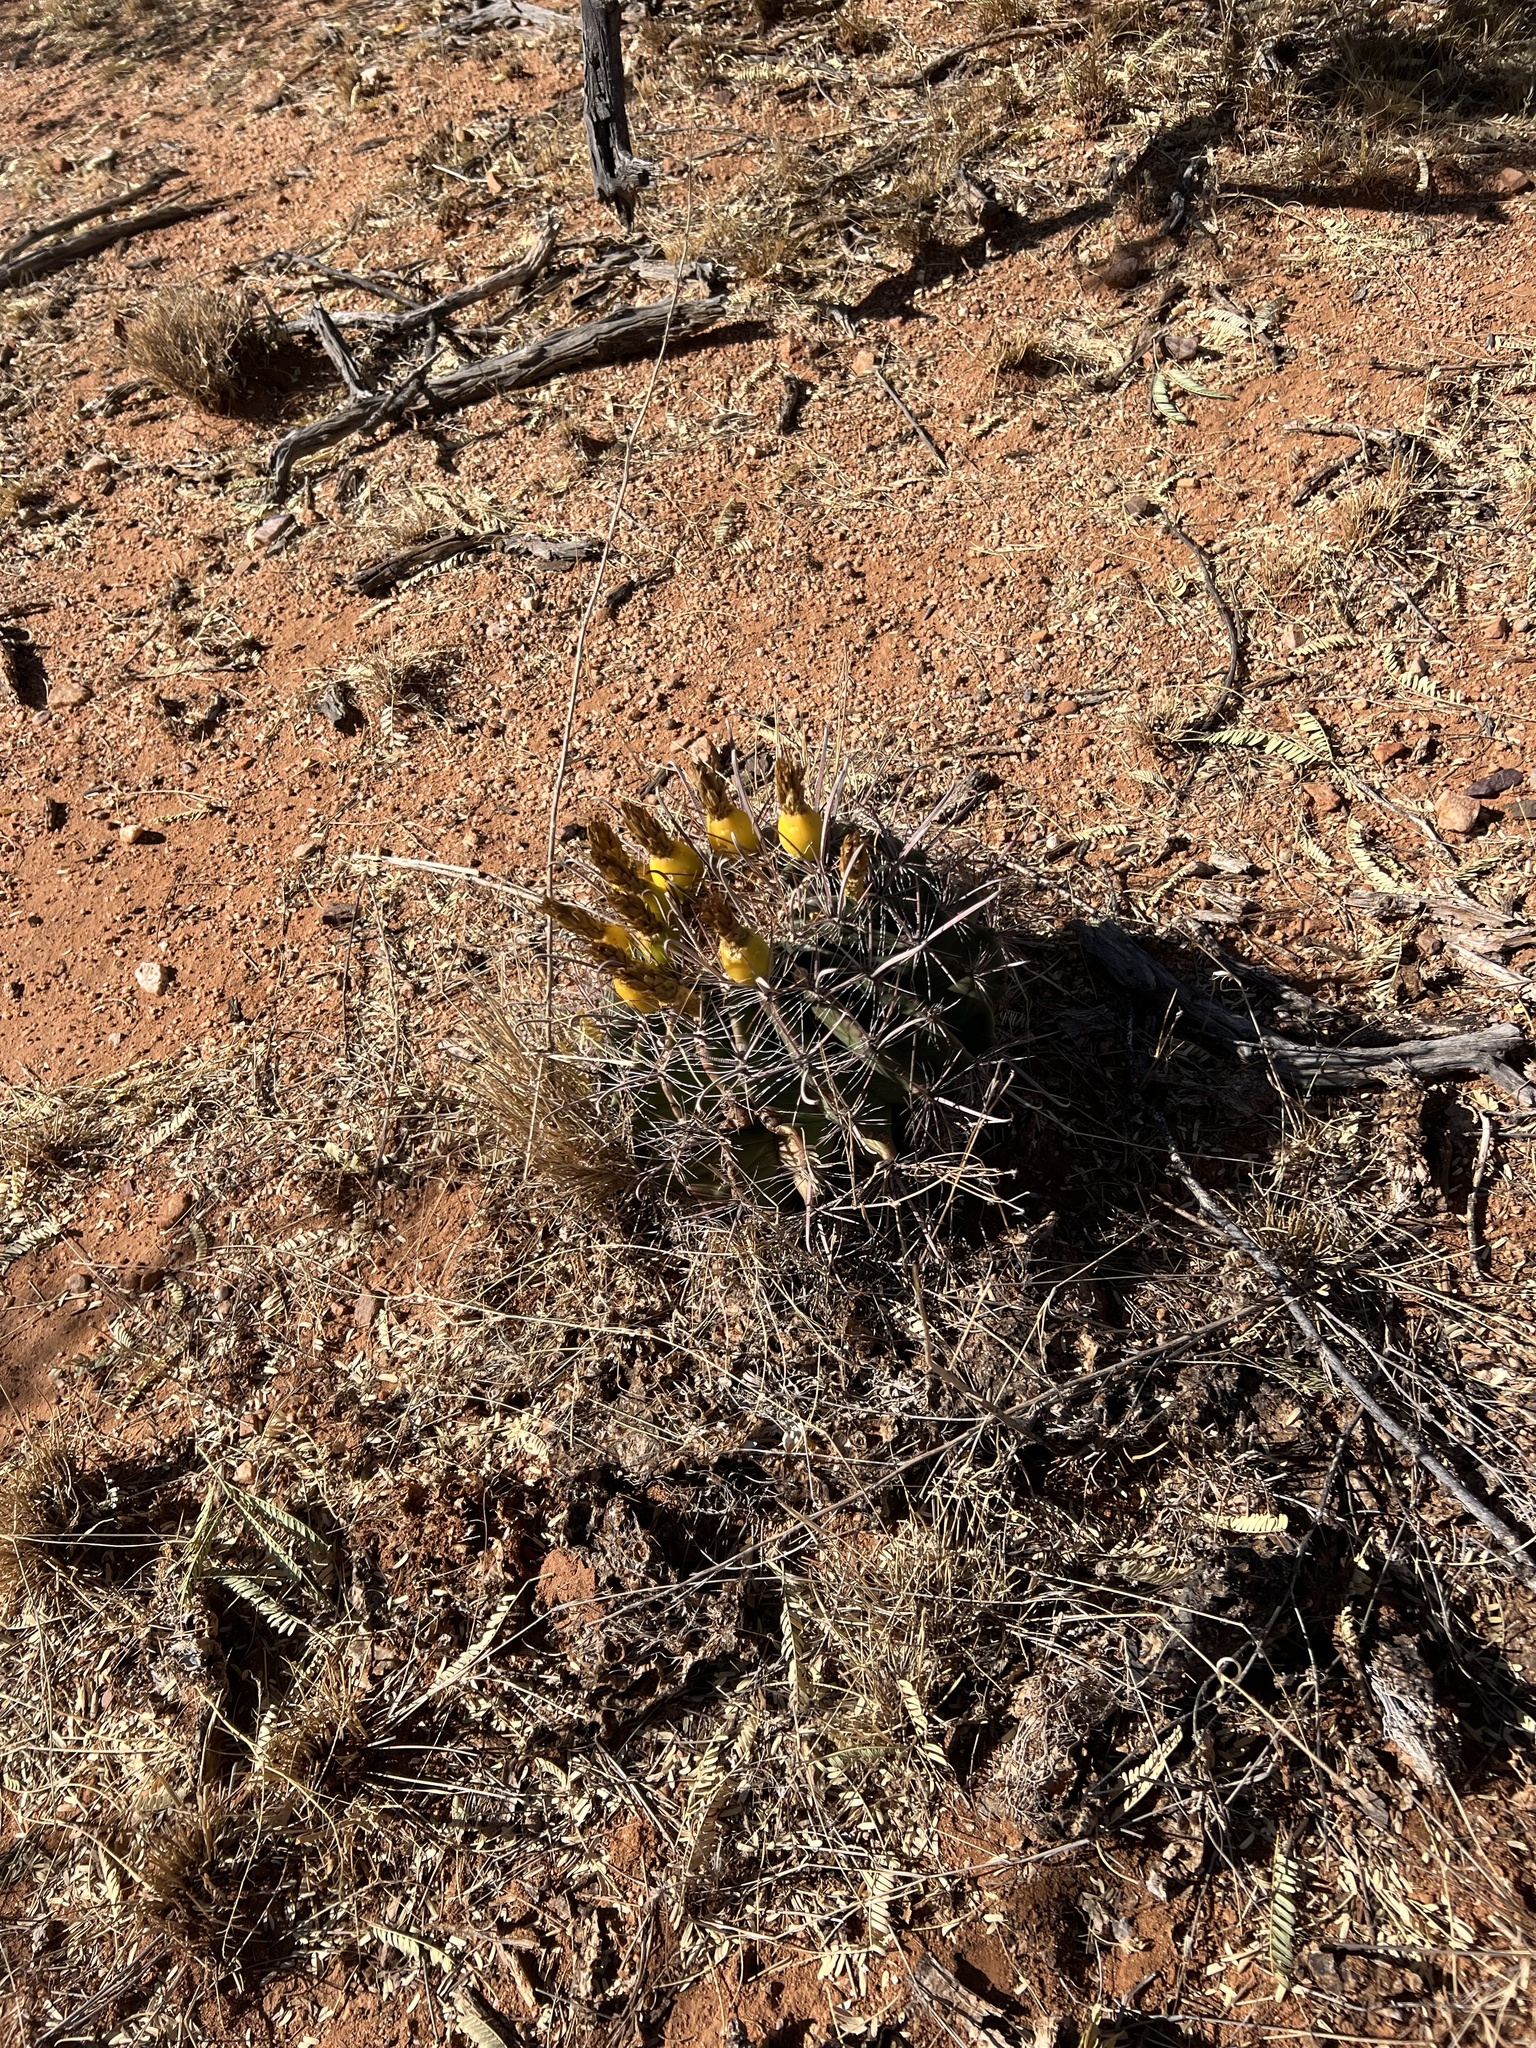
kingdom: Plantae
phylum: Tracheophyta
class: Magnoliopsida
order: Caryophyllales
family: Cactaceae
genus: Ferocactus
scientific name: Ferocactus wislizeni
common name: Candy barrel cactus
